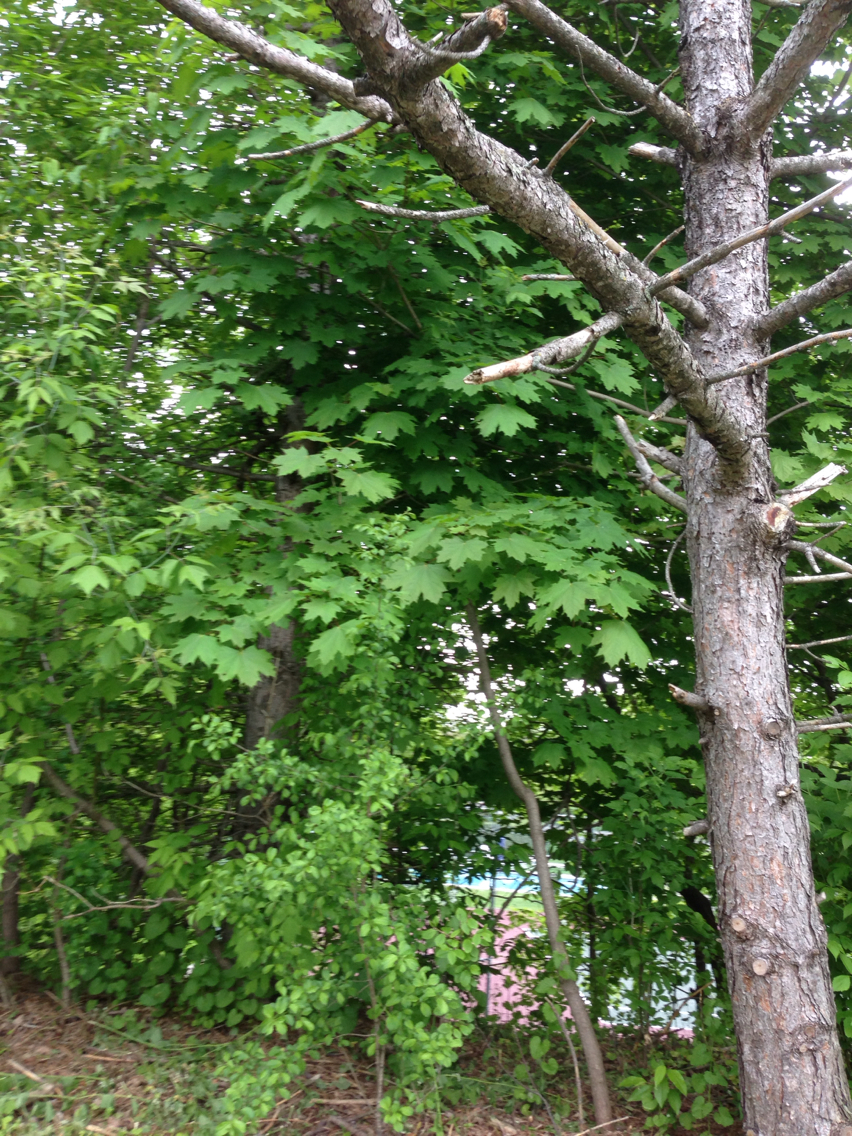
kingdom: Plantae
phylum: Tracheophyta
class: Magnoliopsida
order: Sapindales
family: Sapindaceae
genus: Acer
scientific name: Acer platanoides
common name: Norway maple
